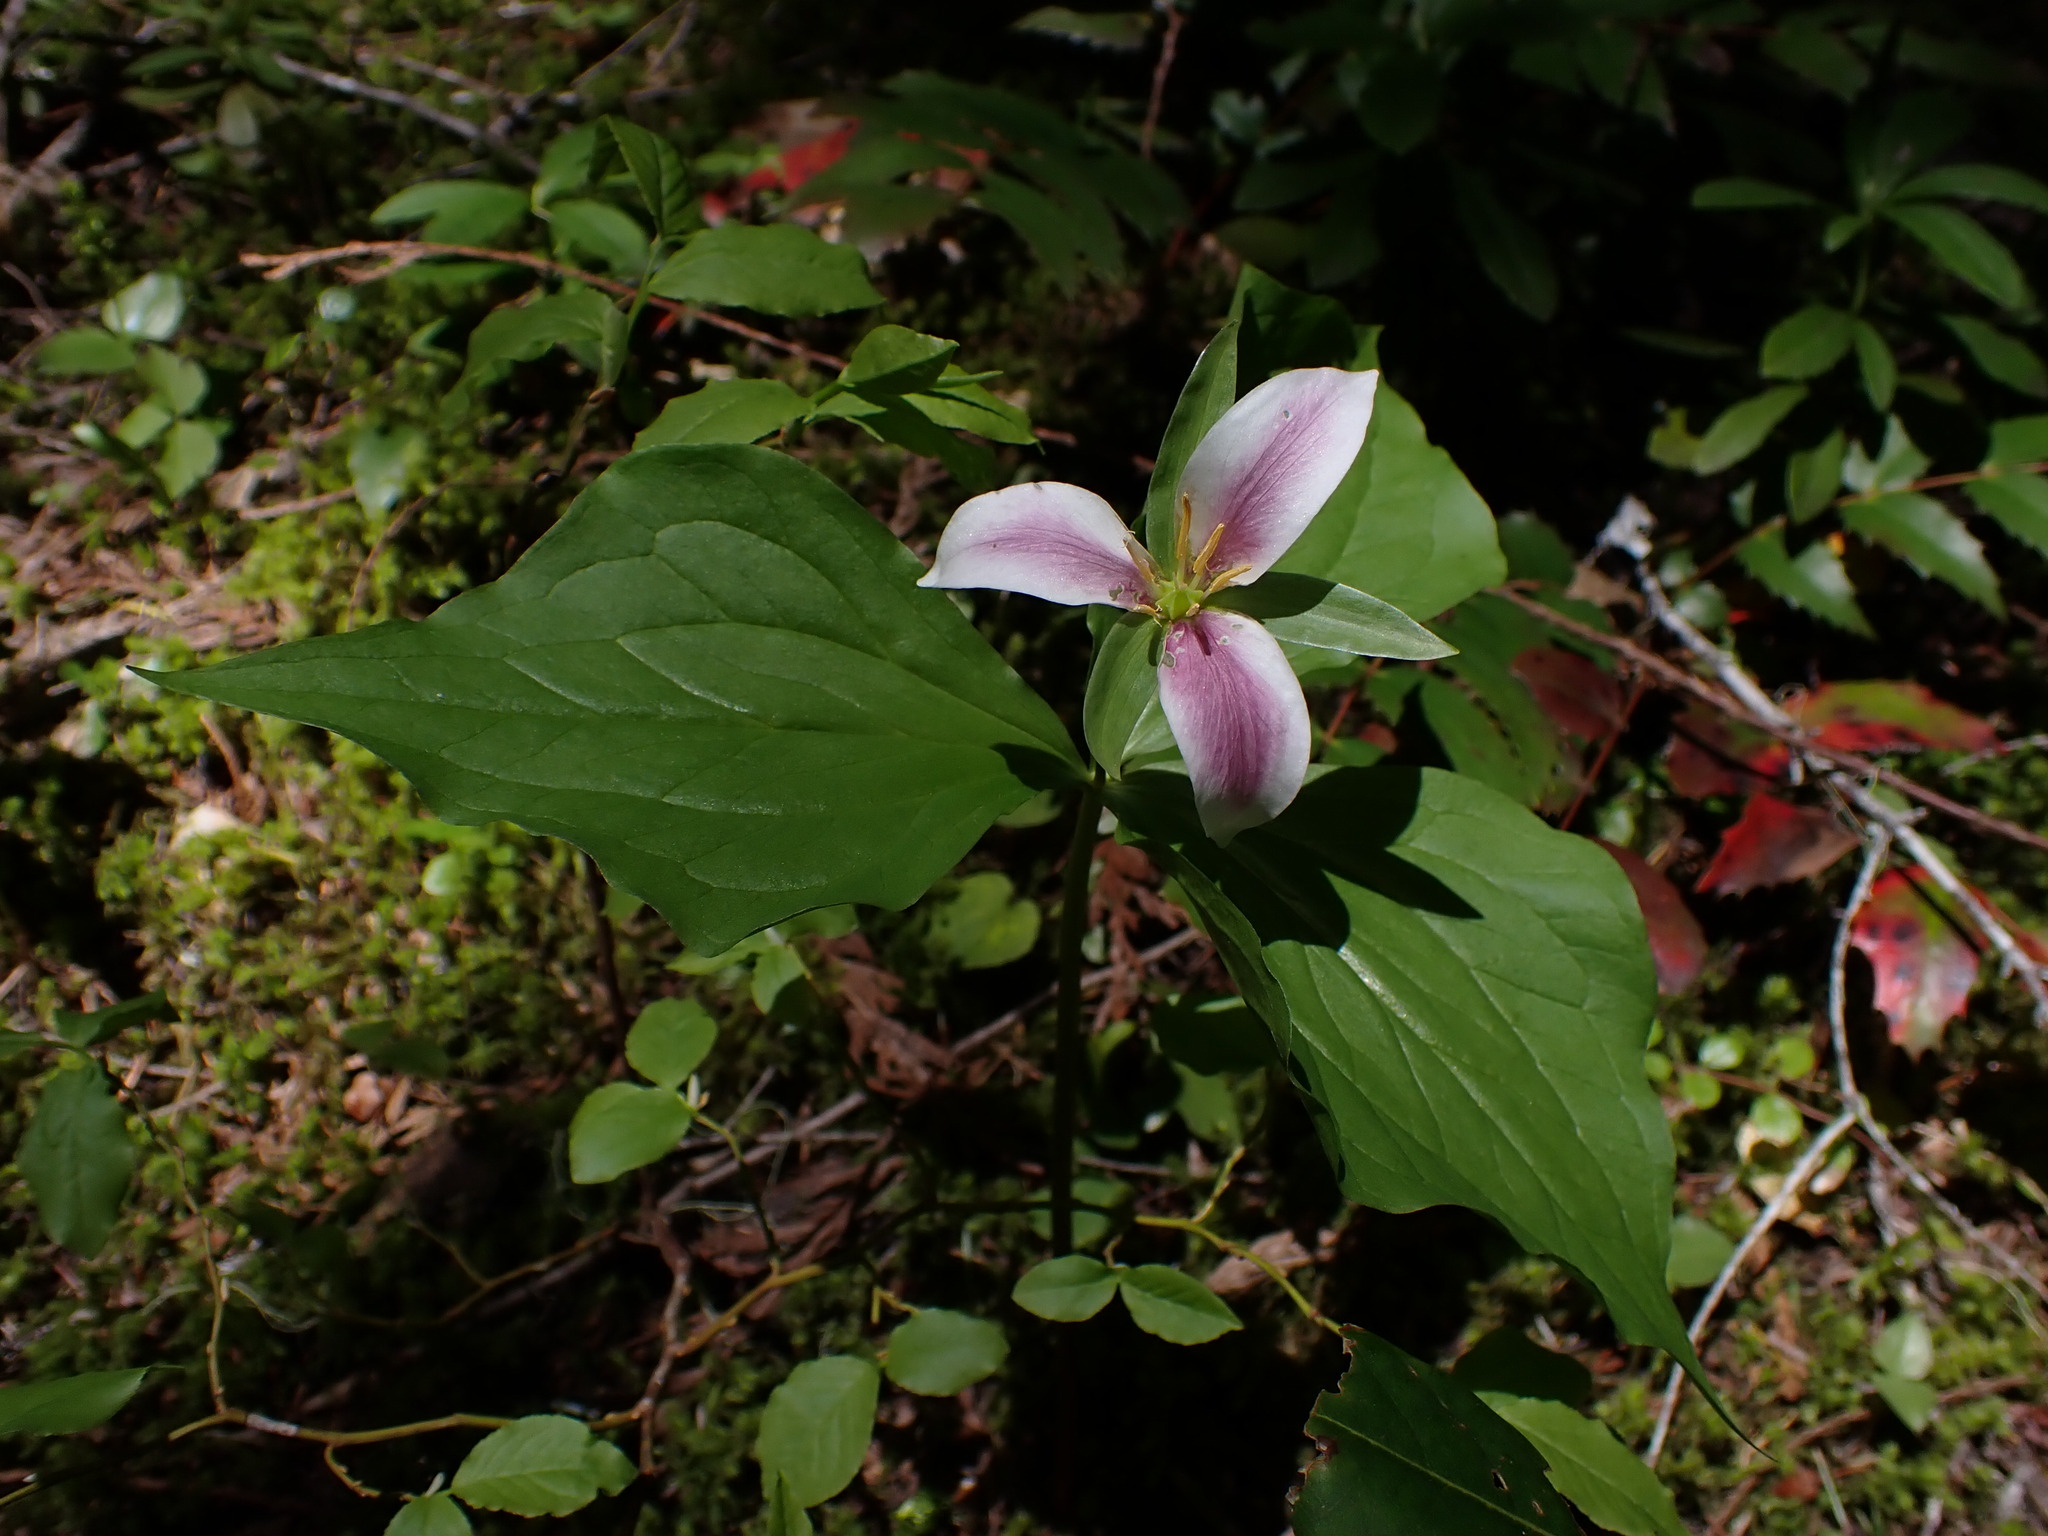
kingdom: Plantae
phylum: Tracheophyta
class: Liliopsida
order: Liliales
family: Melanthiaceae
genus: Trillium
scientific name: Trillium ovatum
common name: Pacific trillium
